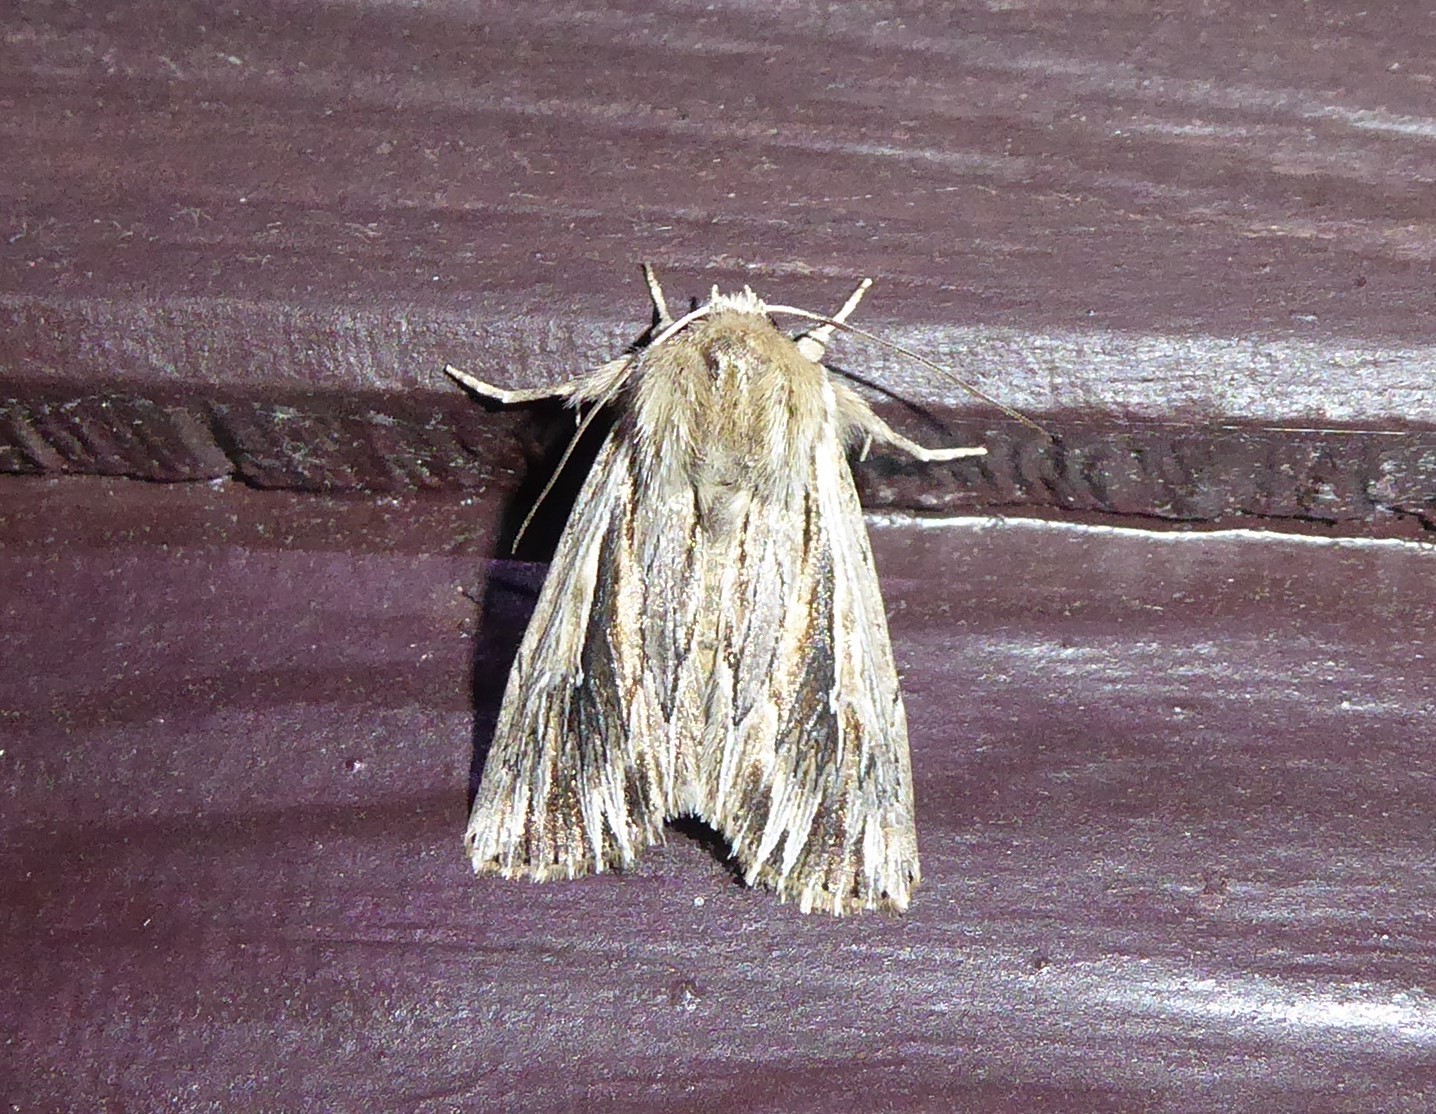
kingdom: Animalia
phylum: Arthropoda
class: Insecta
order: Lepidoptera
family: Noctuidae
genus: Persectania
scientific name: Persectania aversa
